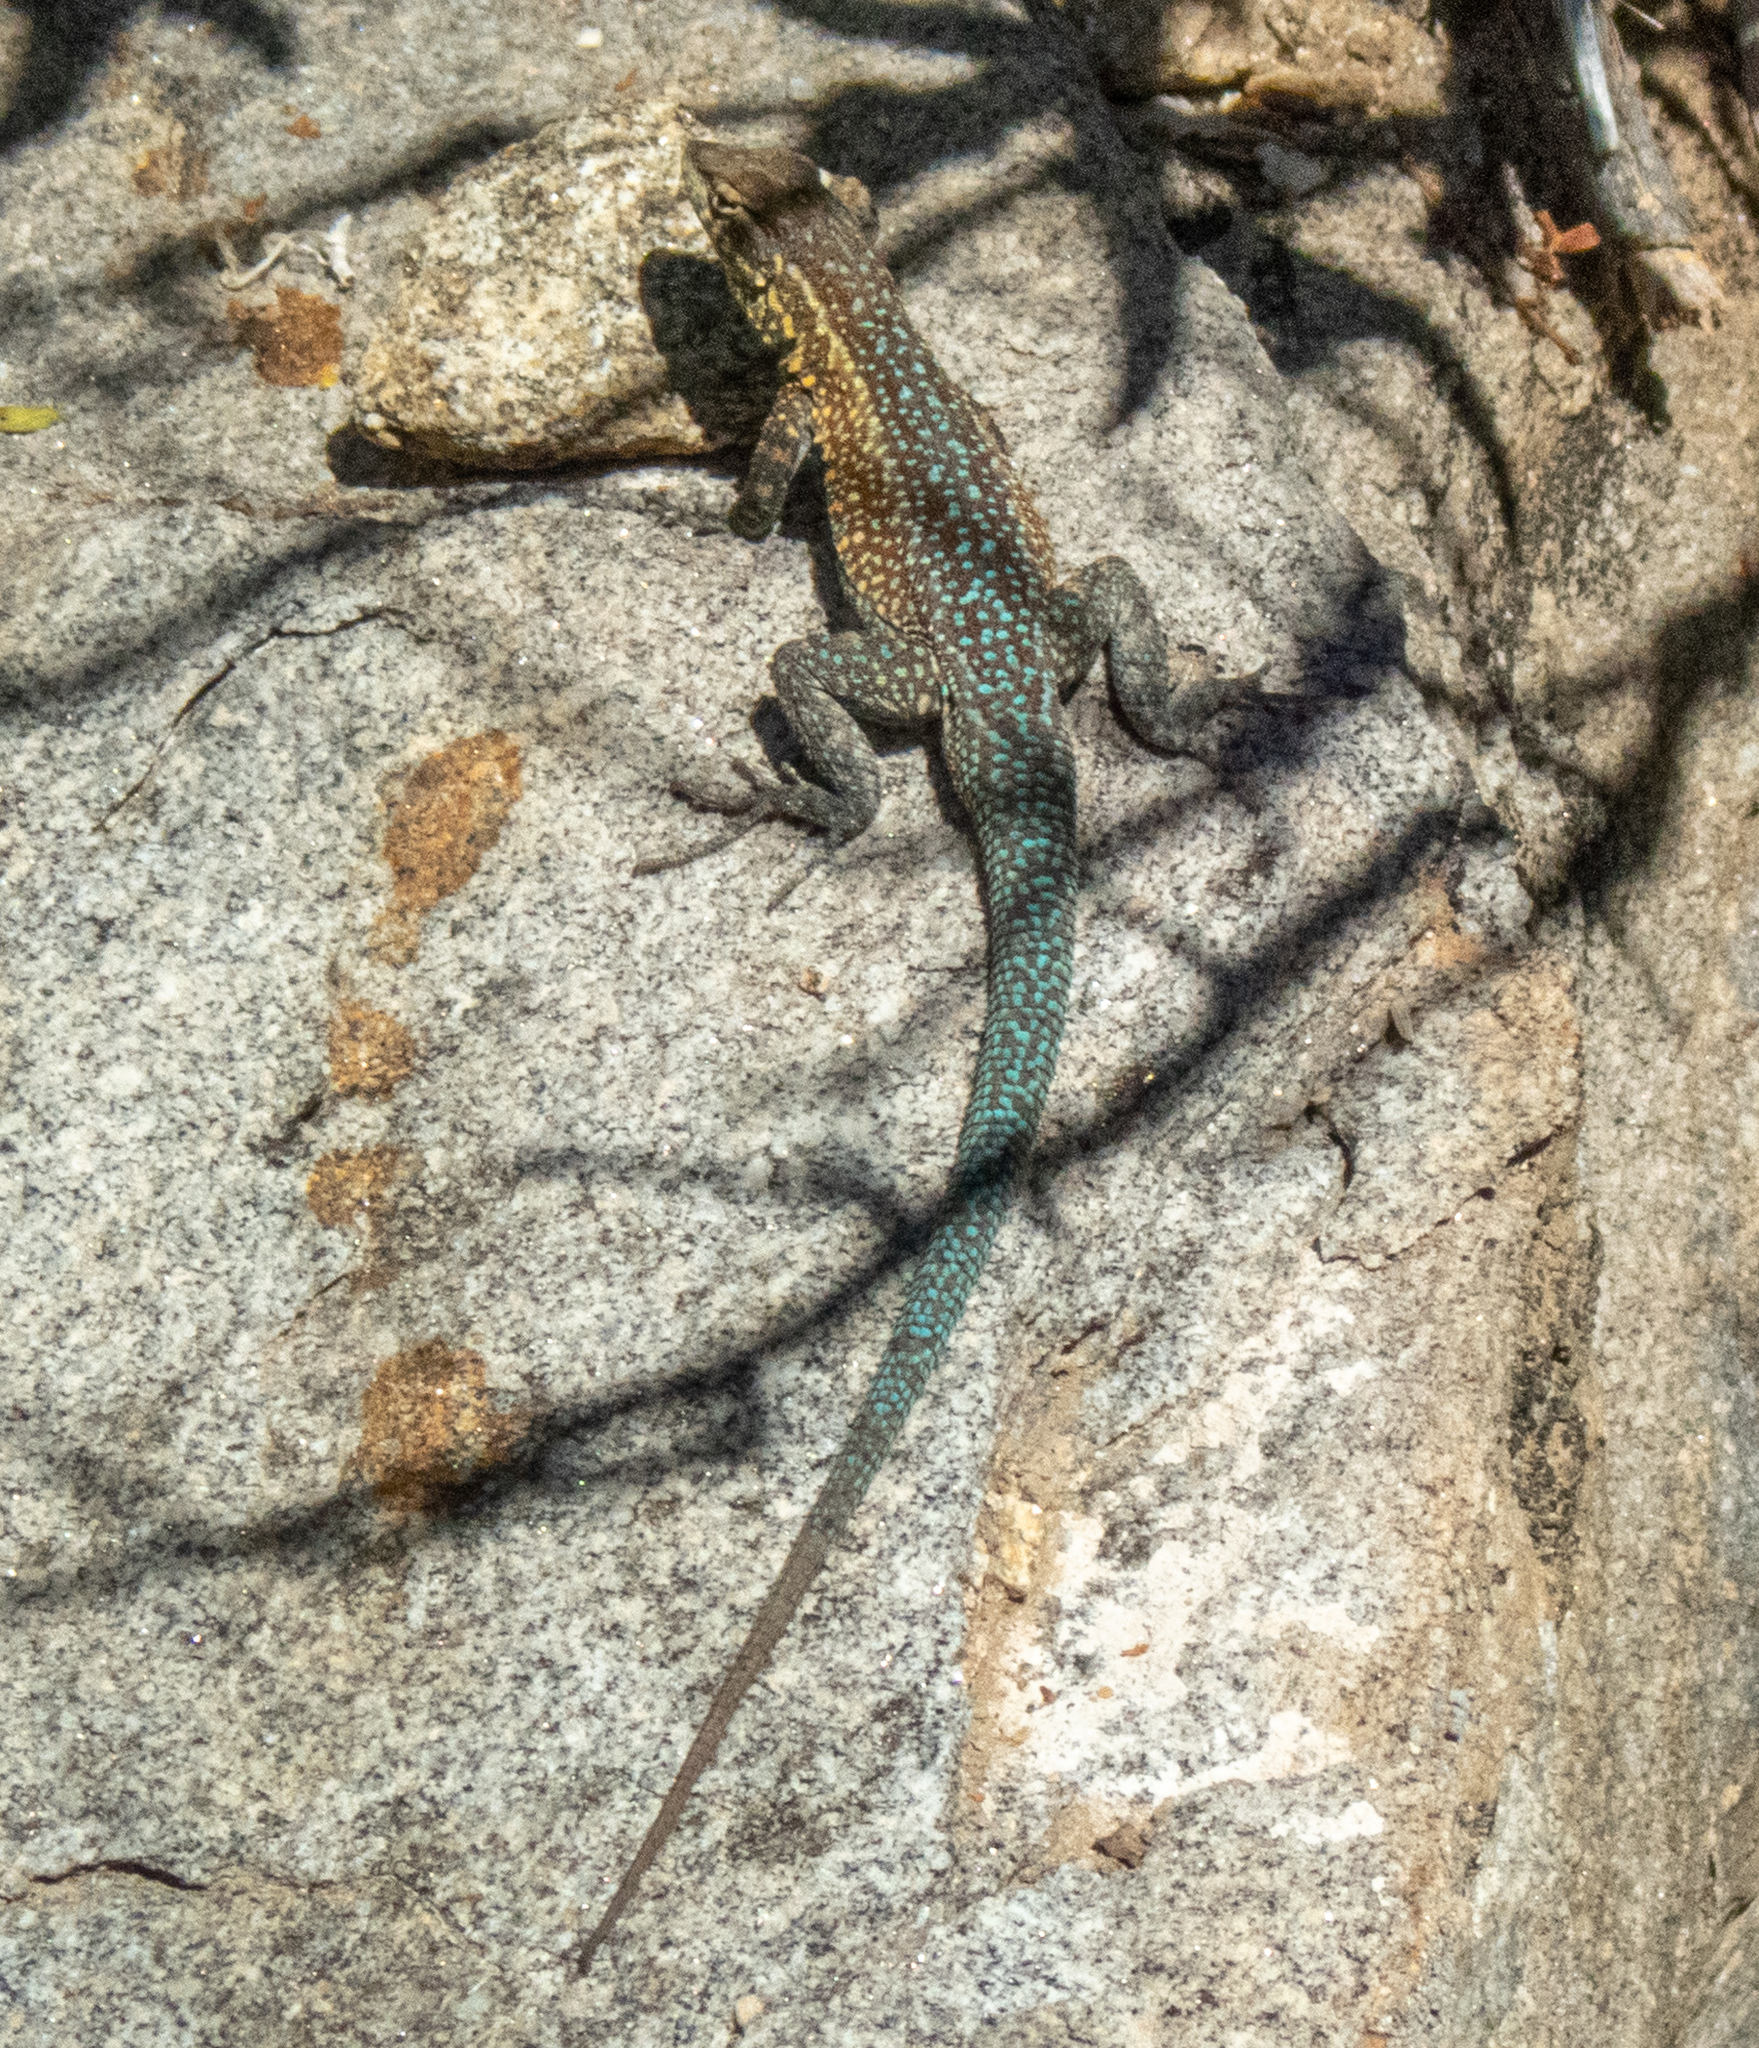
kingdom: Animalia
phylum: Chordata
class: Squamata
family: Phrynosomatidae
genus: Uta
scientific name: Uta stansburiana
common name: Side-blotched lizard
